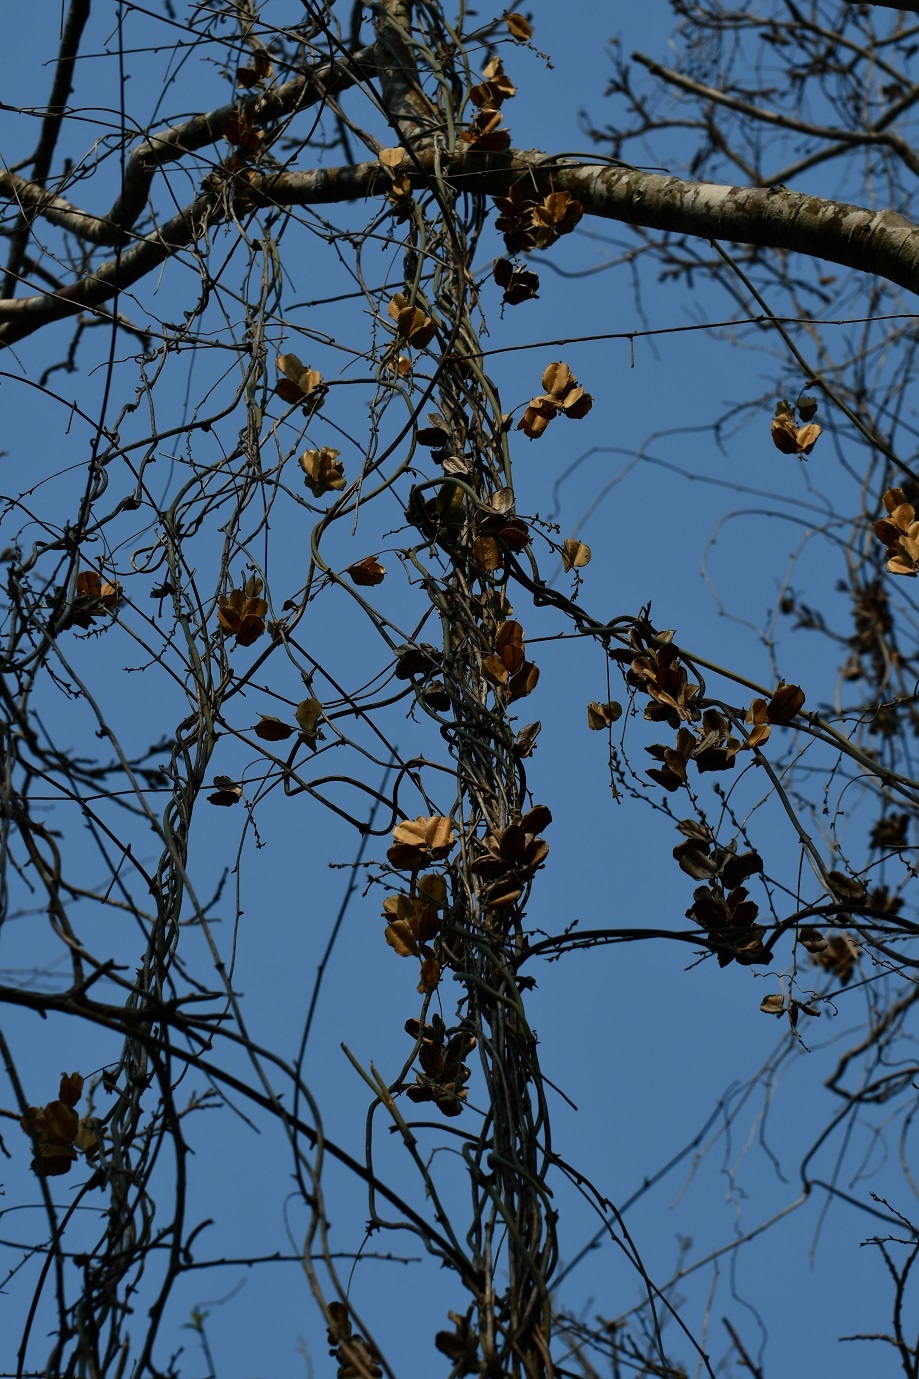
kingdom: Plantae
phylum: Tracheophyta
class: Liliopsida
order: Dioscoreales
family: Dioscoreaceae
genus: Dioscorea
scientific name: Dioscorea spiculiflora
